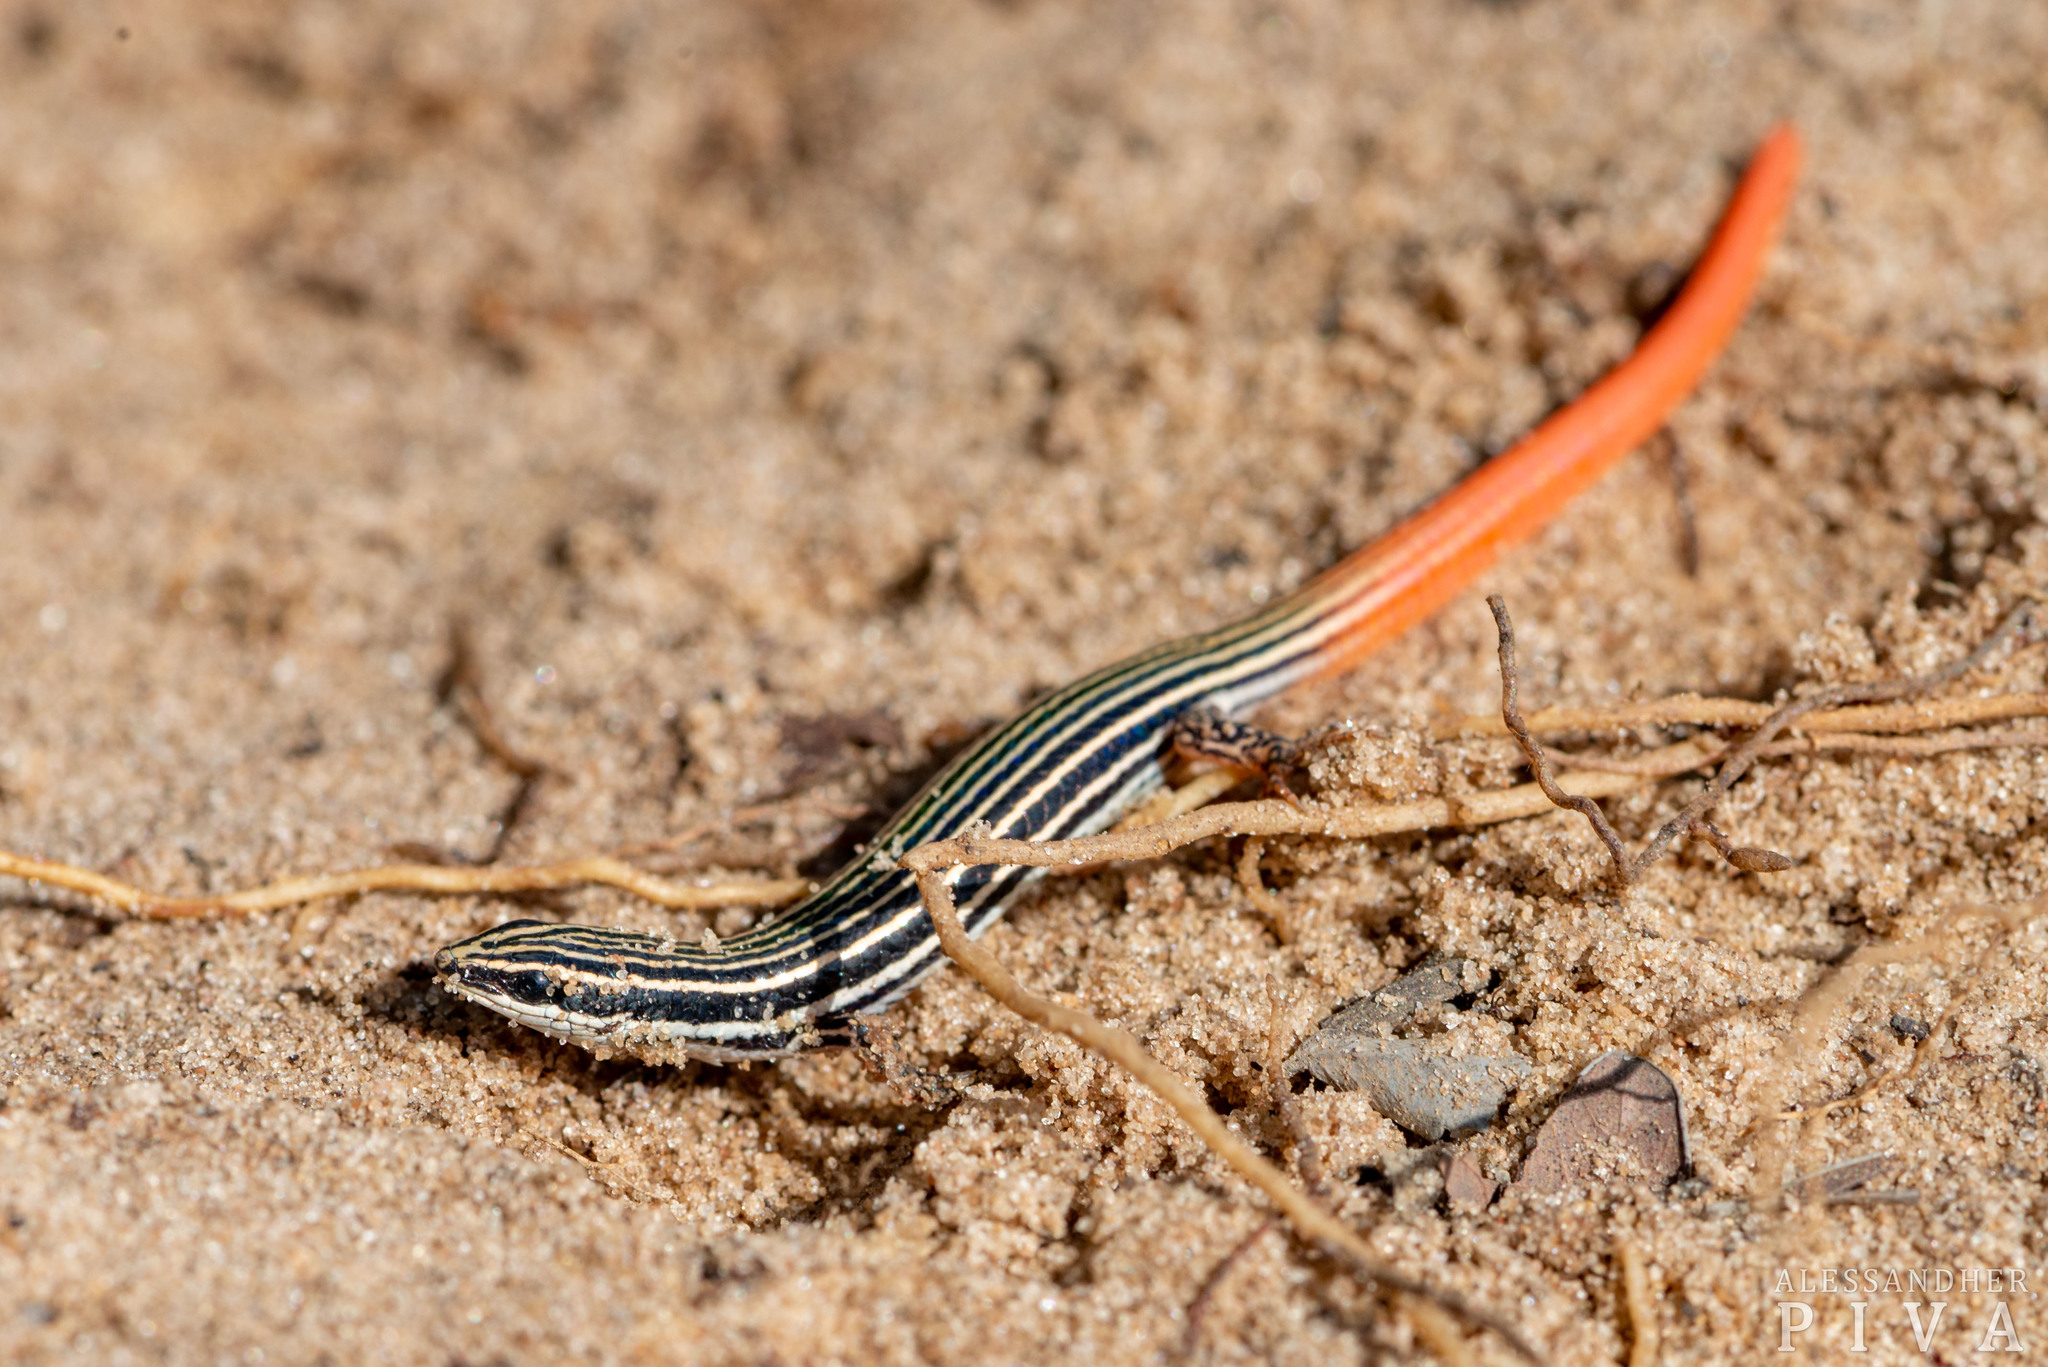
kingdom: Animalia
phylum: Chordata
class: Squamata
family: Gymnophthalmidae
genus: Vanzosaura
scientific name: Vanzosaura rubricauda
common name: Redtail tegus
